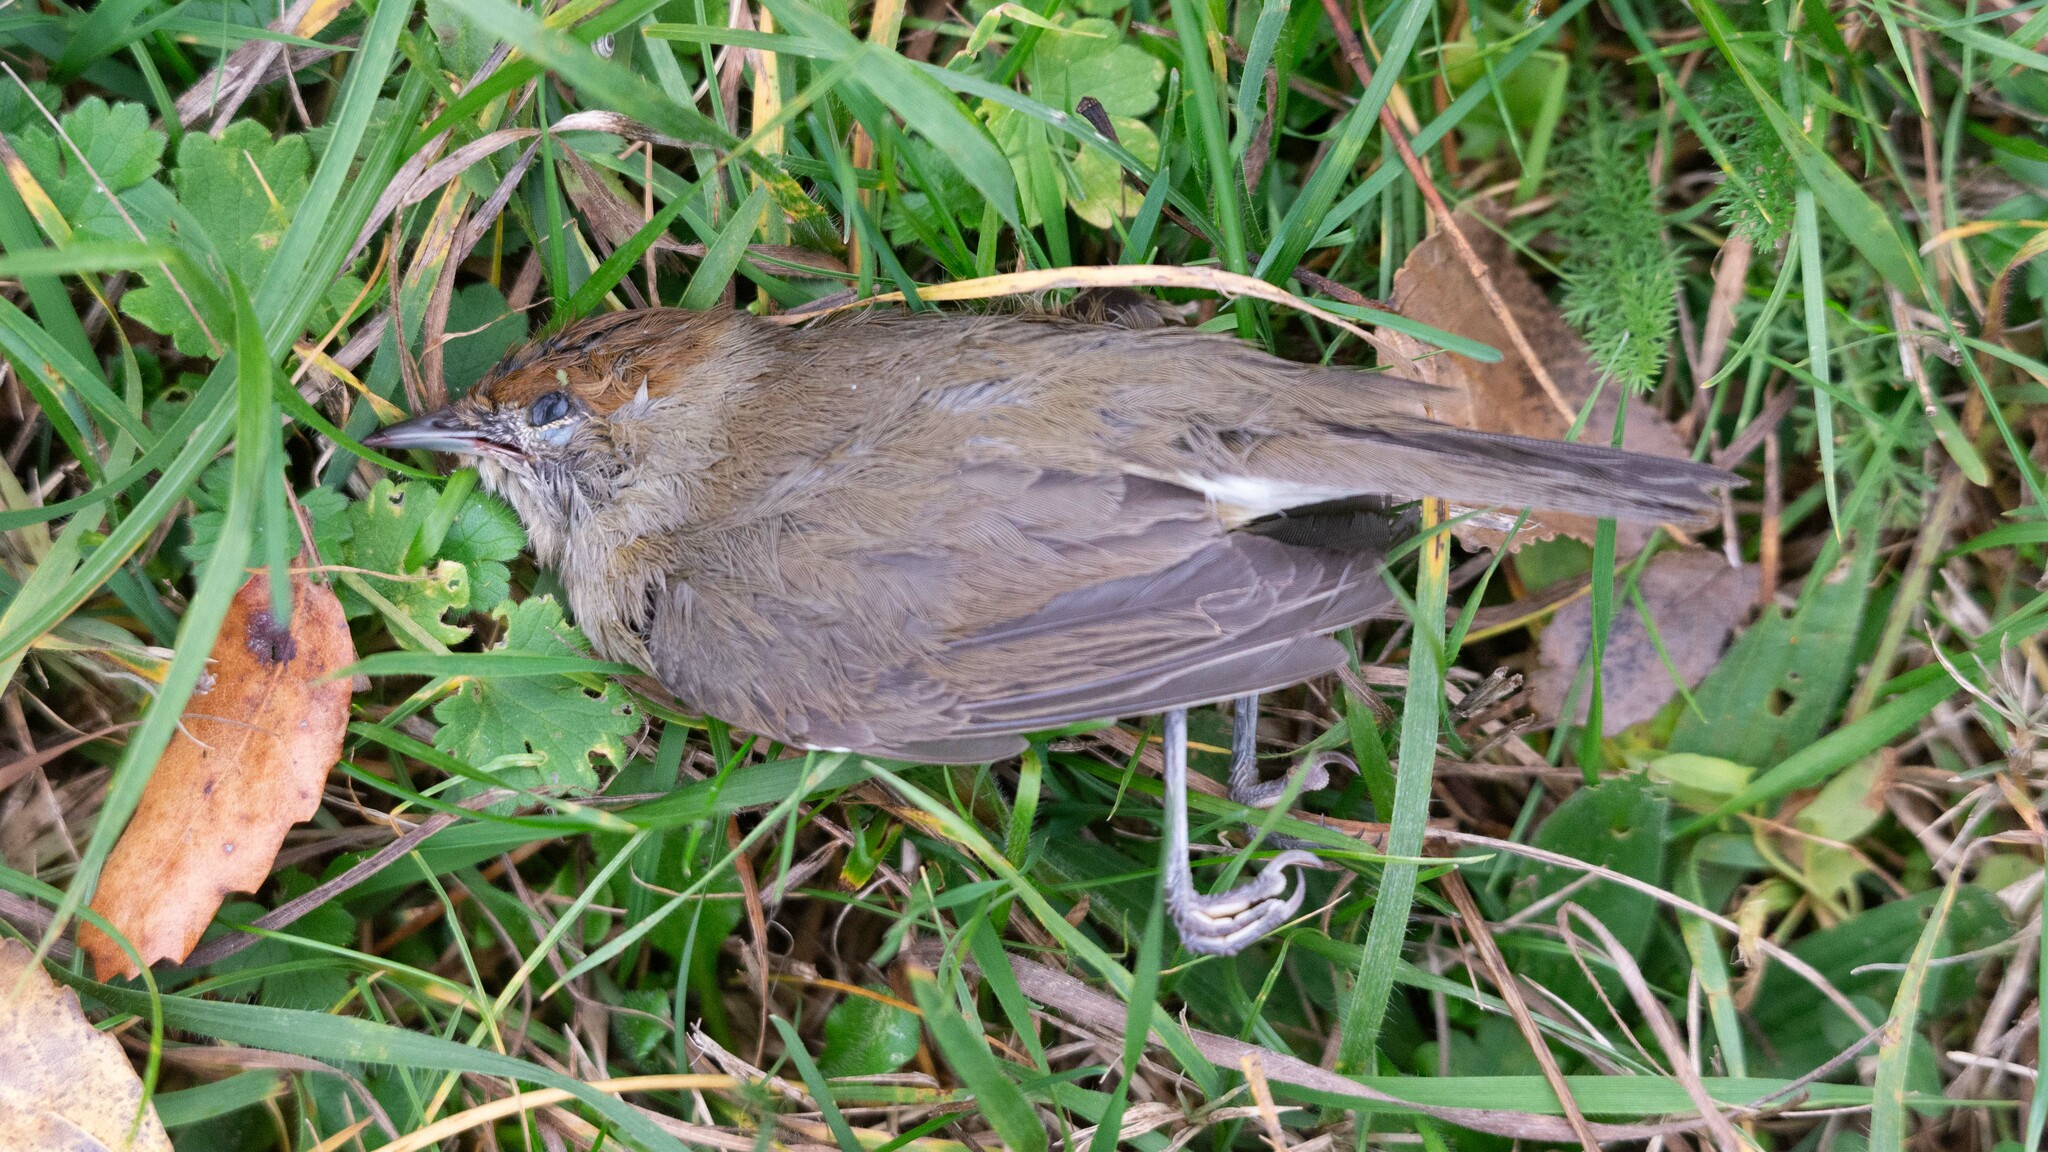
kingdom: Animalia
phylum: Chordata
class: Aves
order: Passeriformes
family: Sylviidae
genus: Sylvia
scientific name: Sylvia atricapilla
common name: Eurasian blackcap
